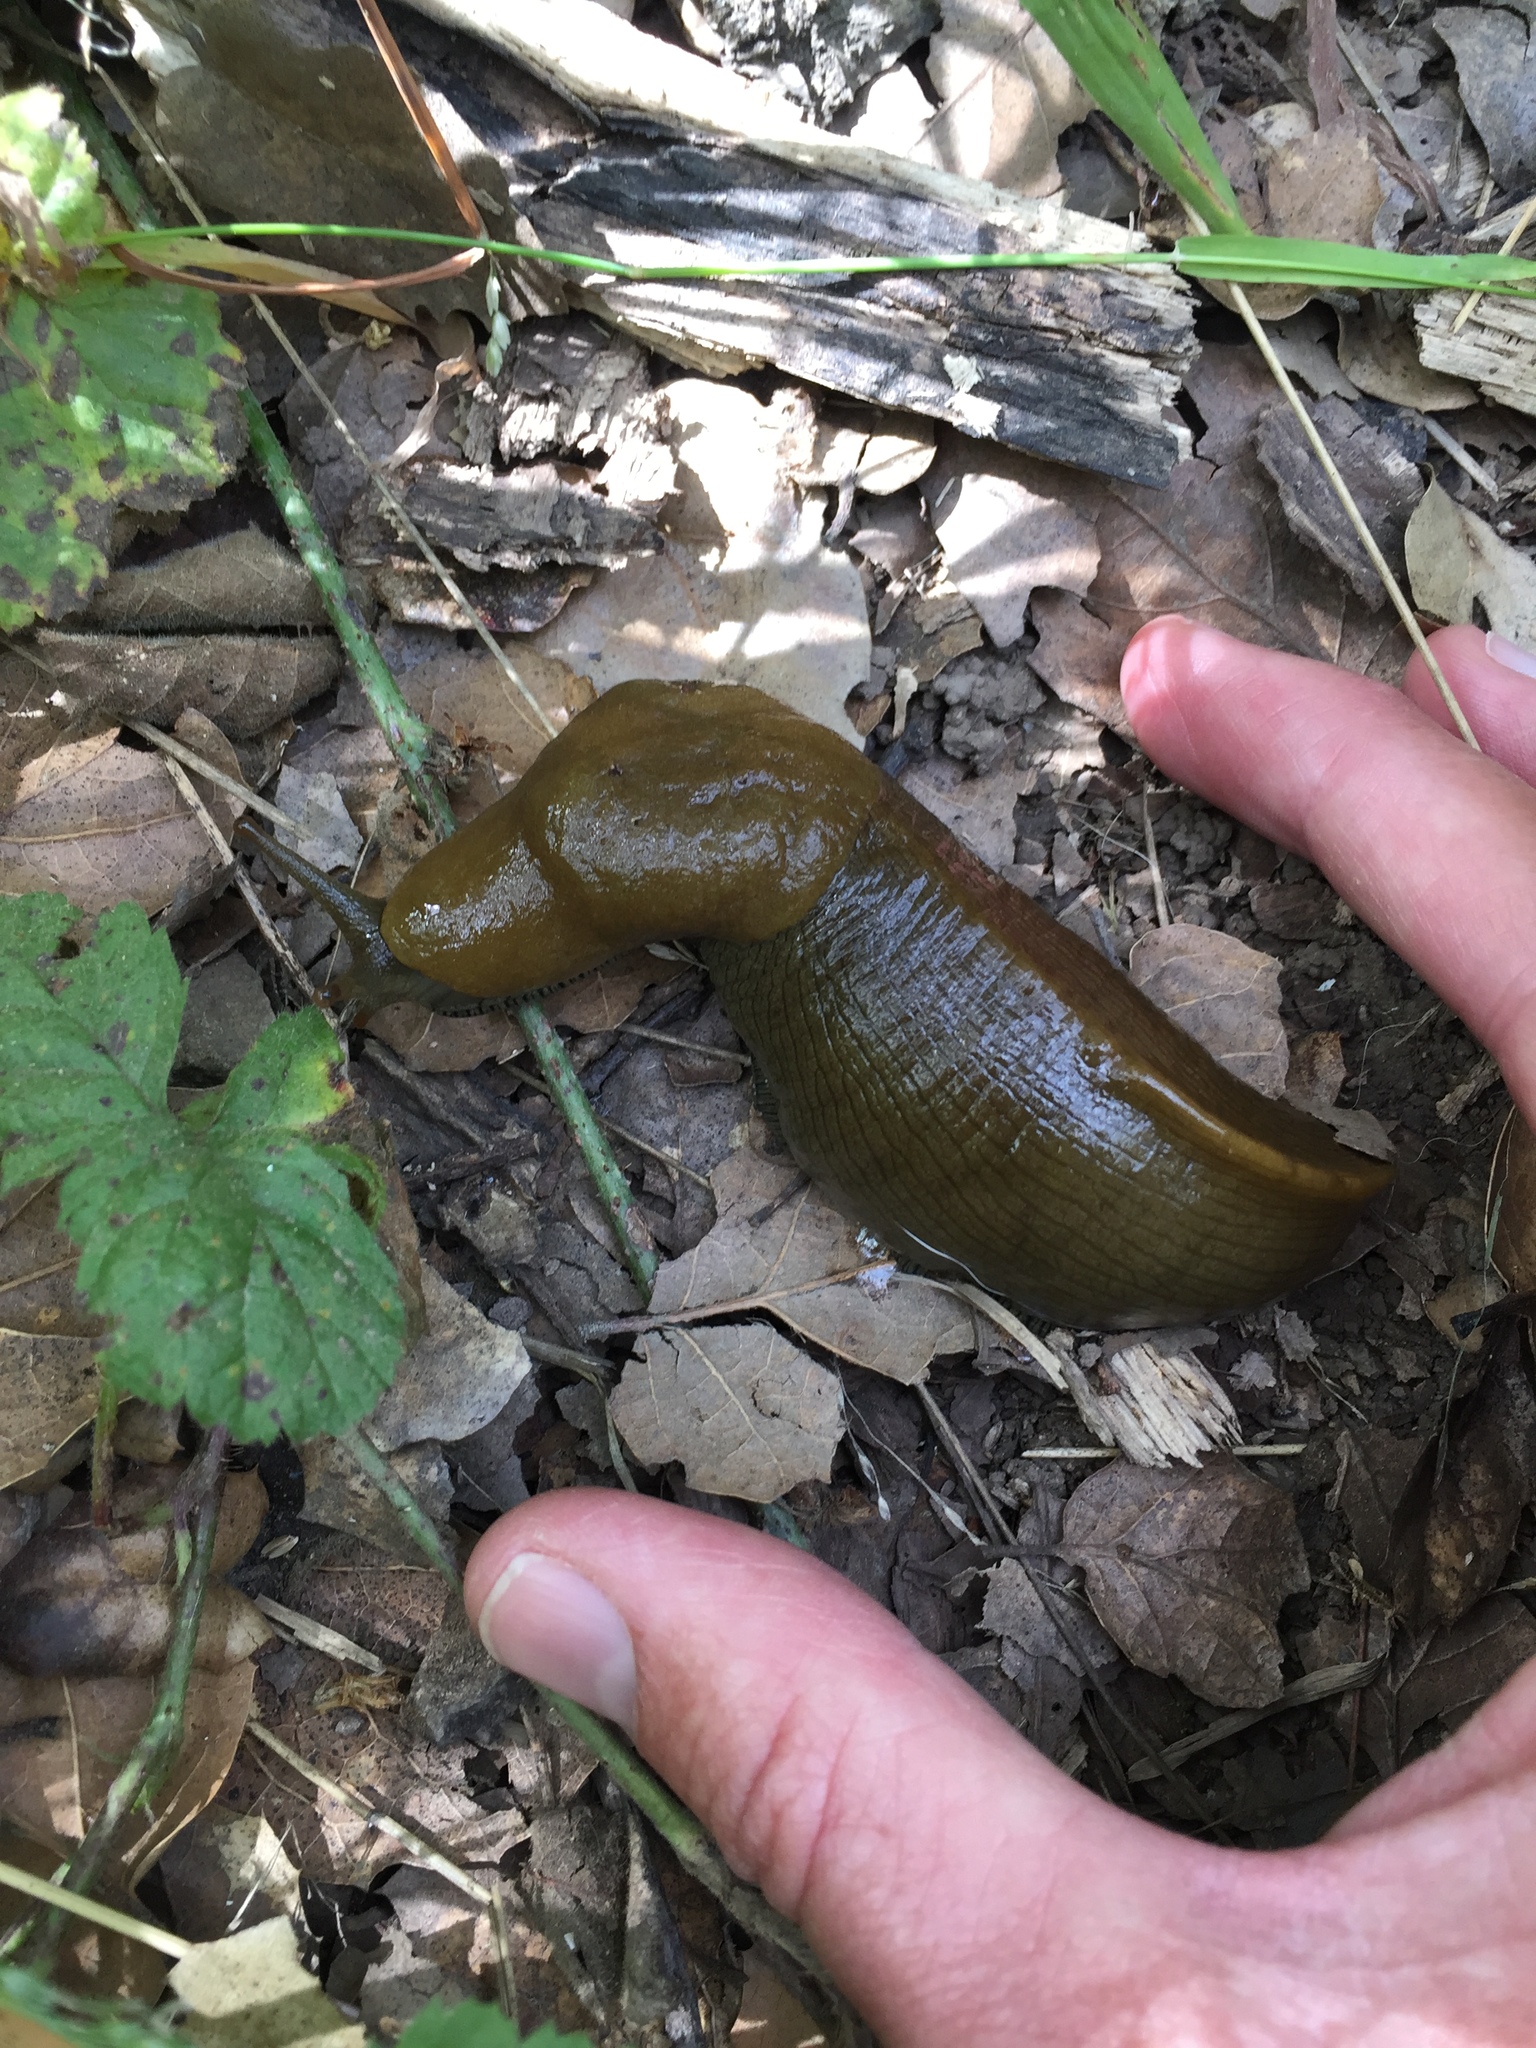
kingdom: Animalia
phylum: Mollusca
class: Gastropoda
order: Stylommatophora
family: Ariolimacidae
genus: Ariolimax
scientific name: Ariolimax buttoni
